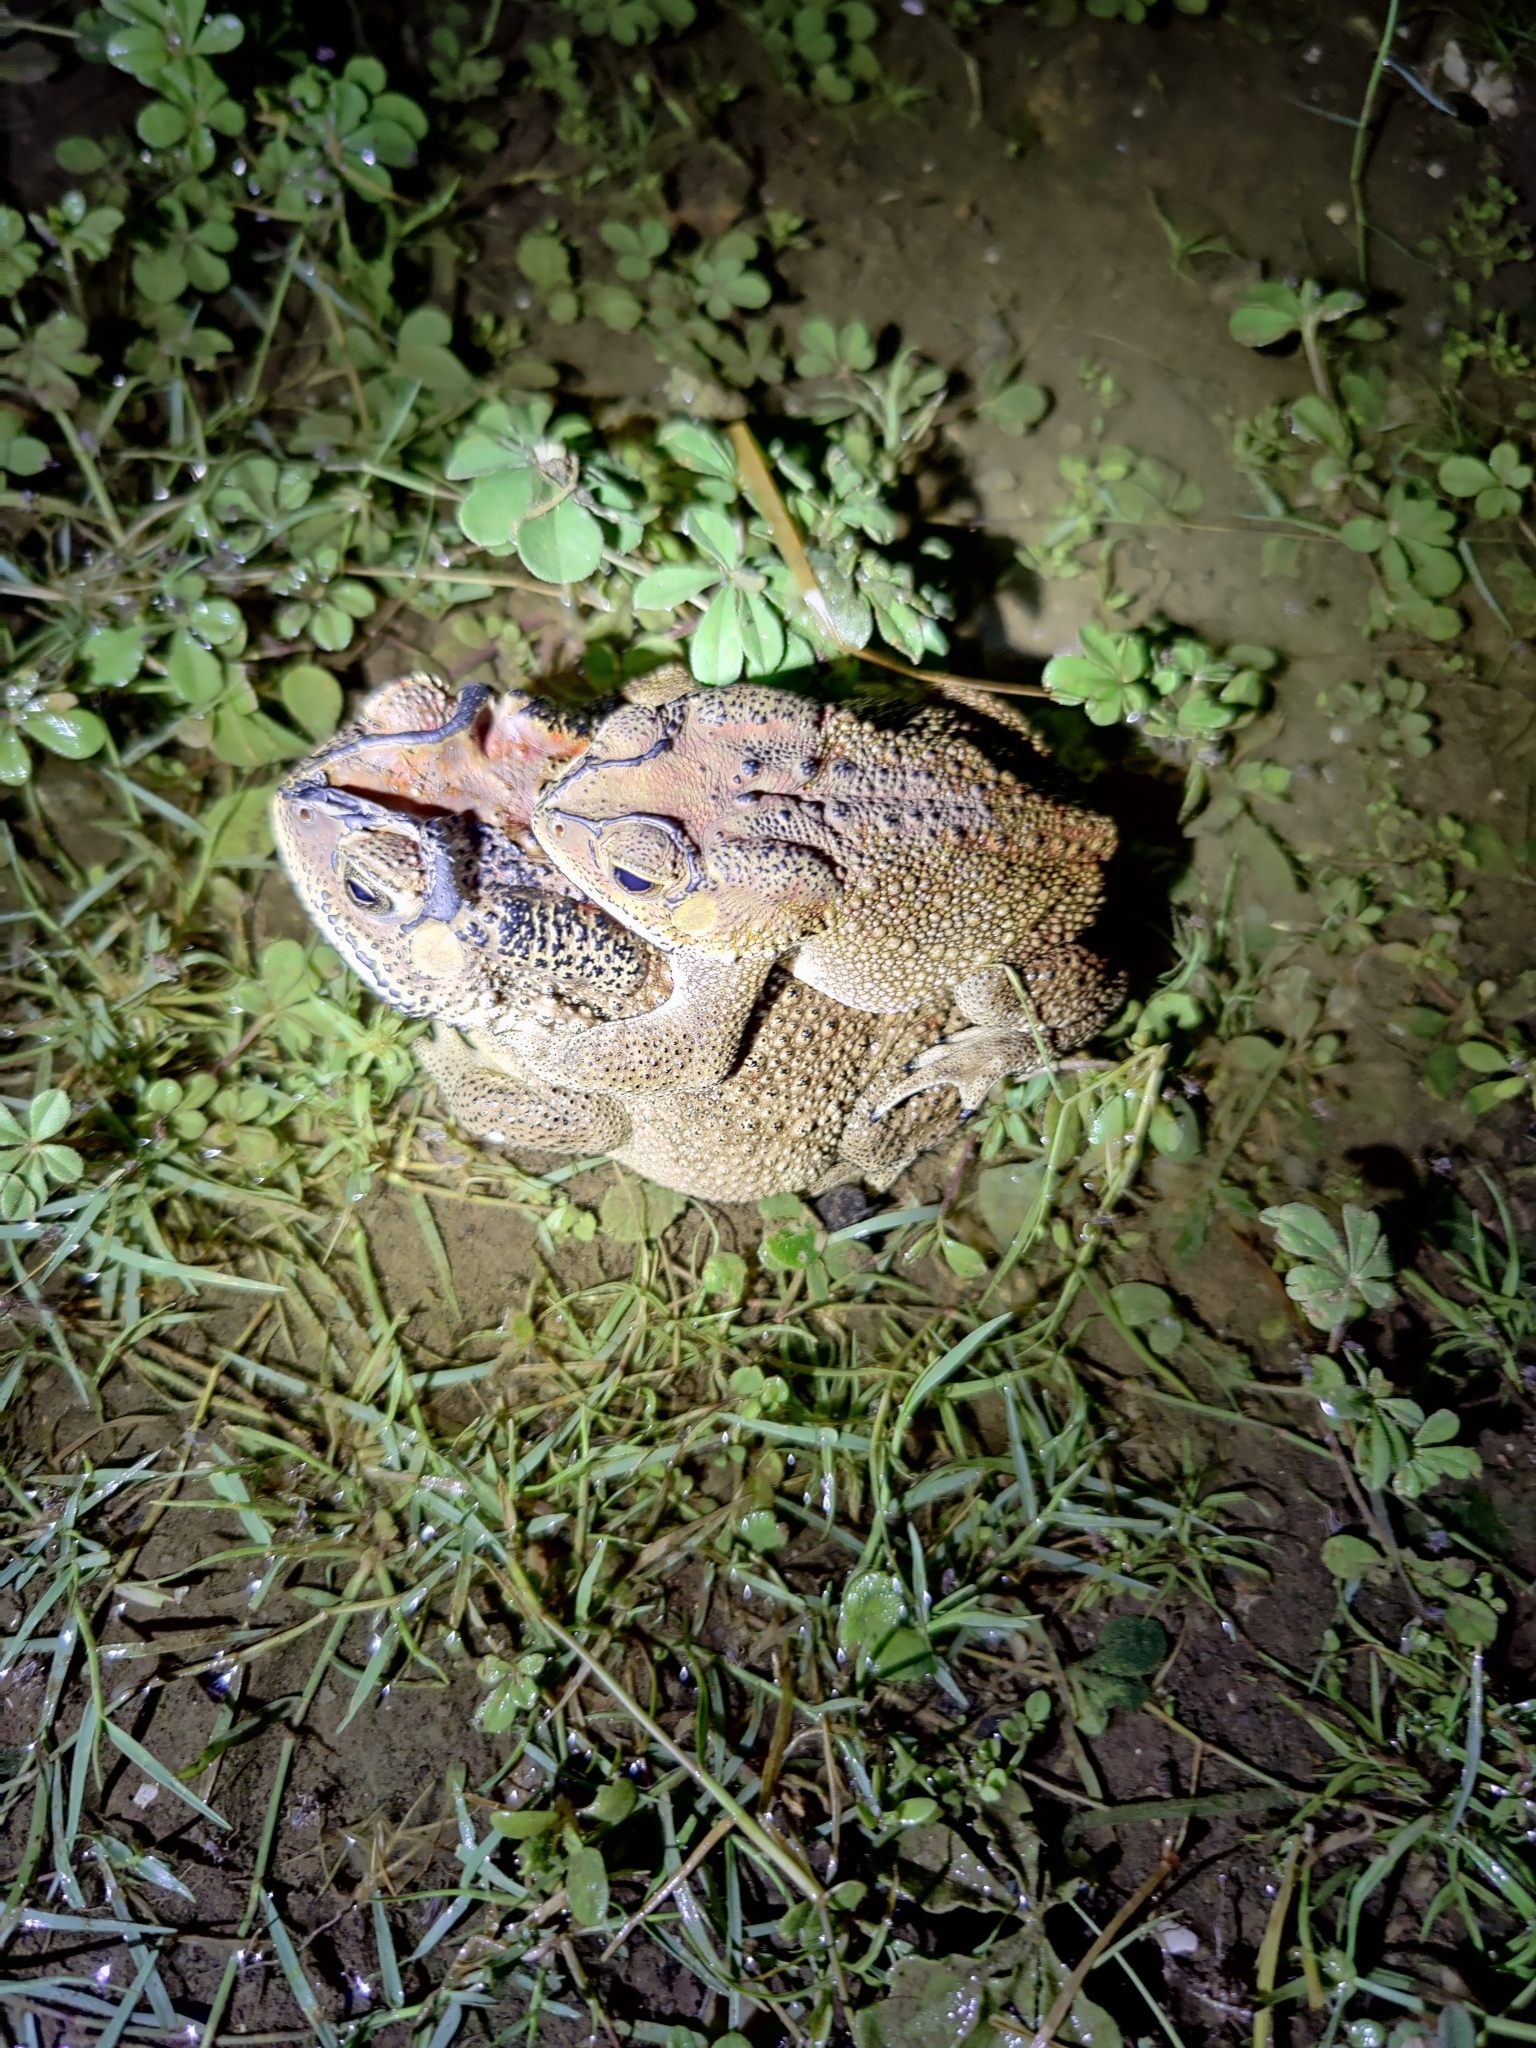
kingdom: Animalia
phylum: Chordata
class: Amphibia
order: Anura
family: Bufonidae
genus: Duttaphrynus
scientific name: Duttaphrynus melanostictus
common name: Common sunda toad
